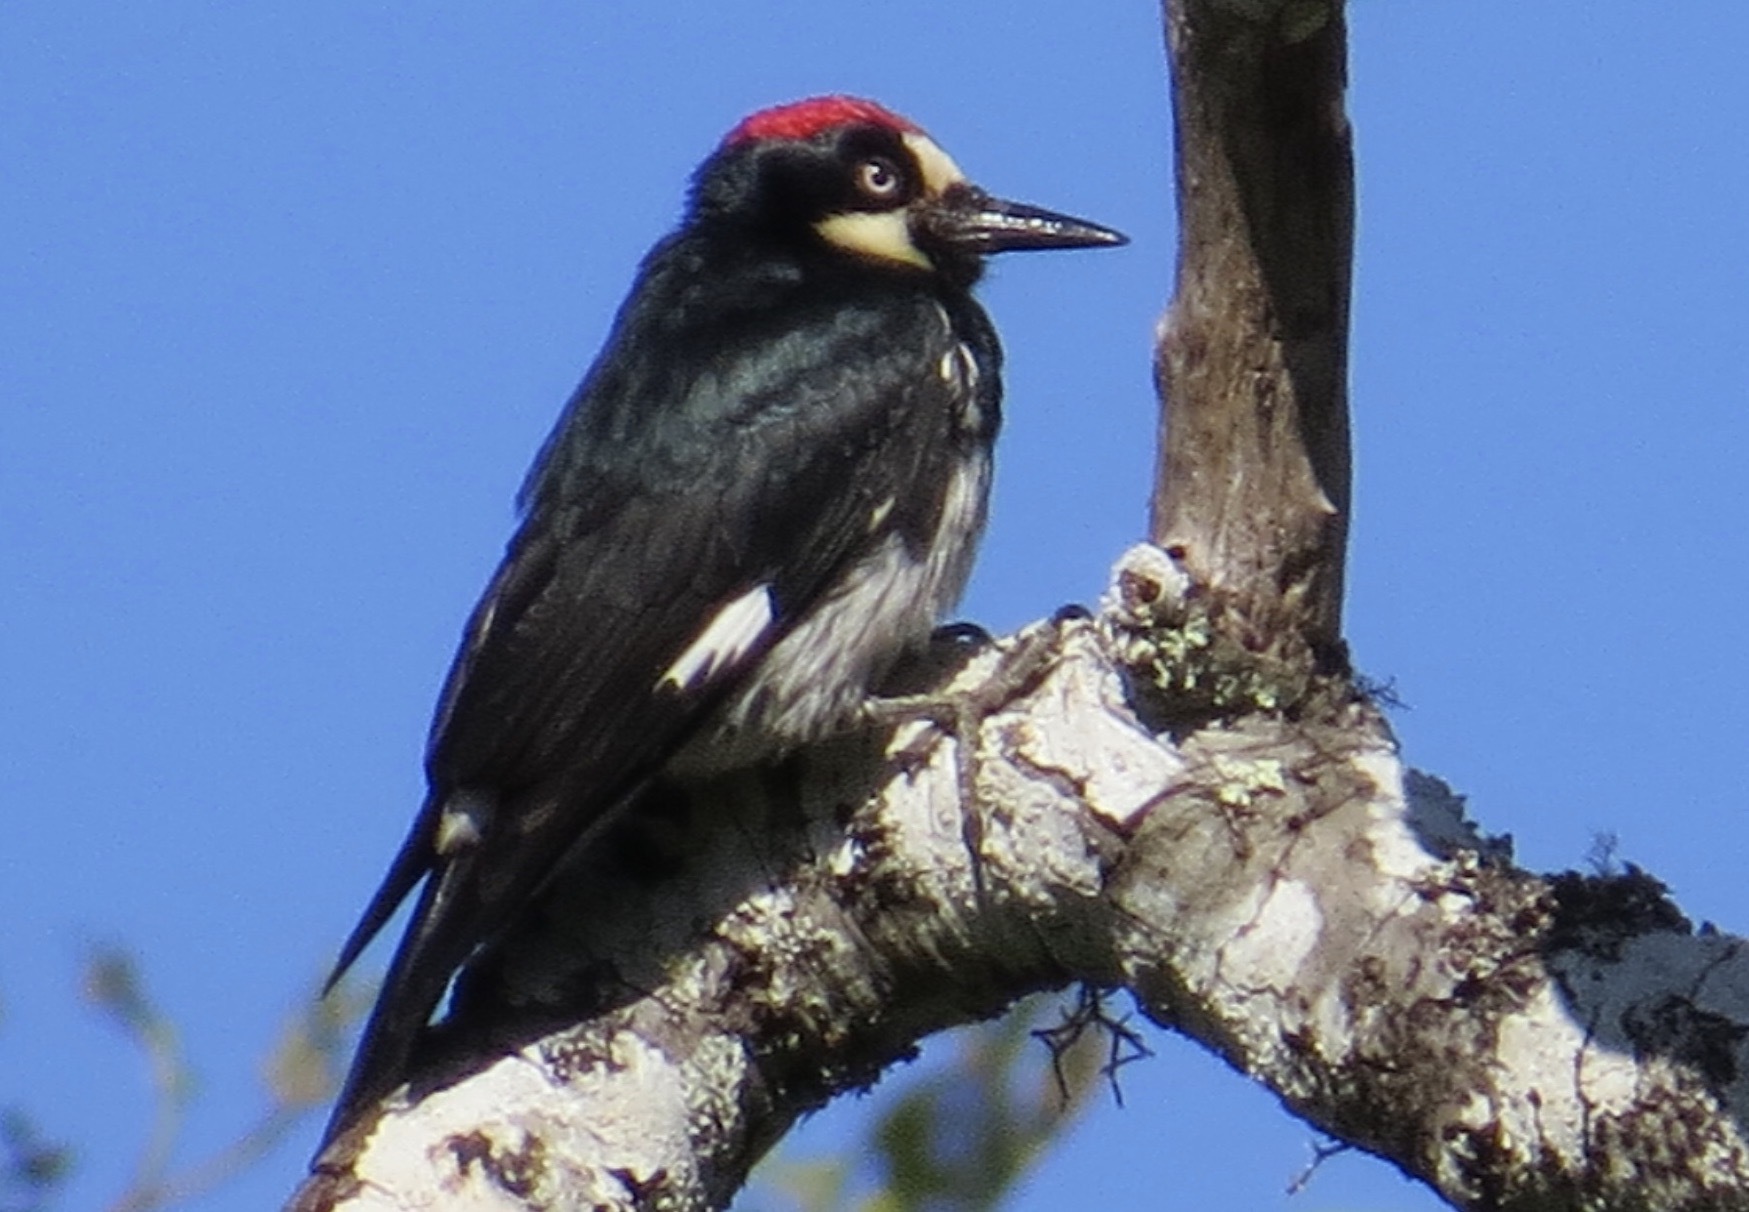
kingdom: Animalia
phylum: Chordata
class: Aves
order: Piciformes
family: Picidae
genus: Melanerpes
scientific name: Melanerpes formicivorus
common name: Acorn woodpecker
